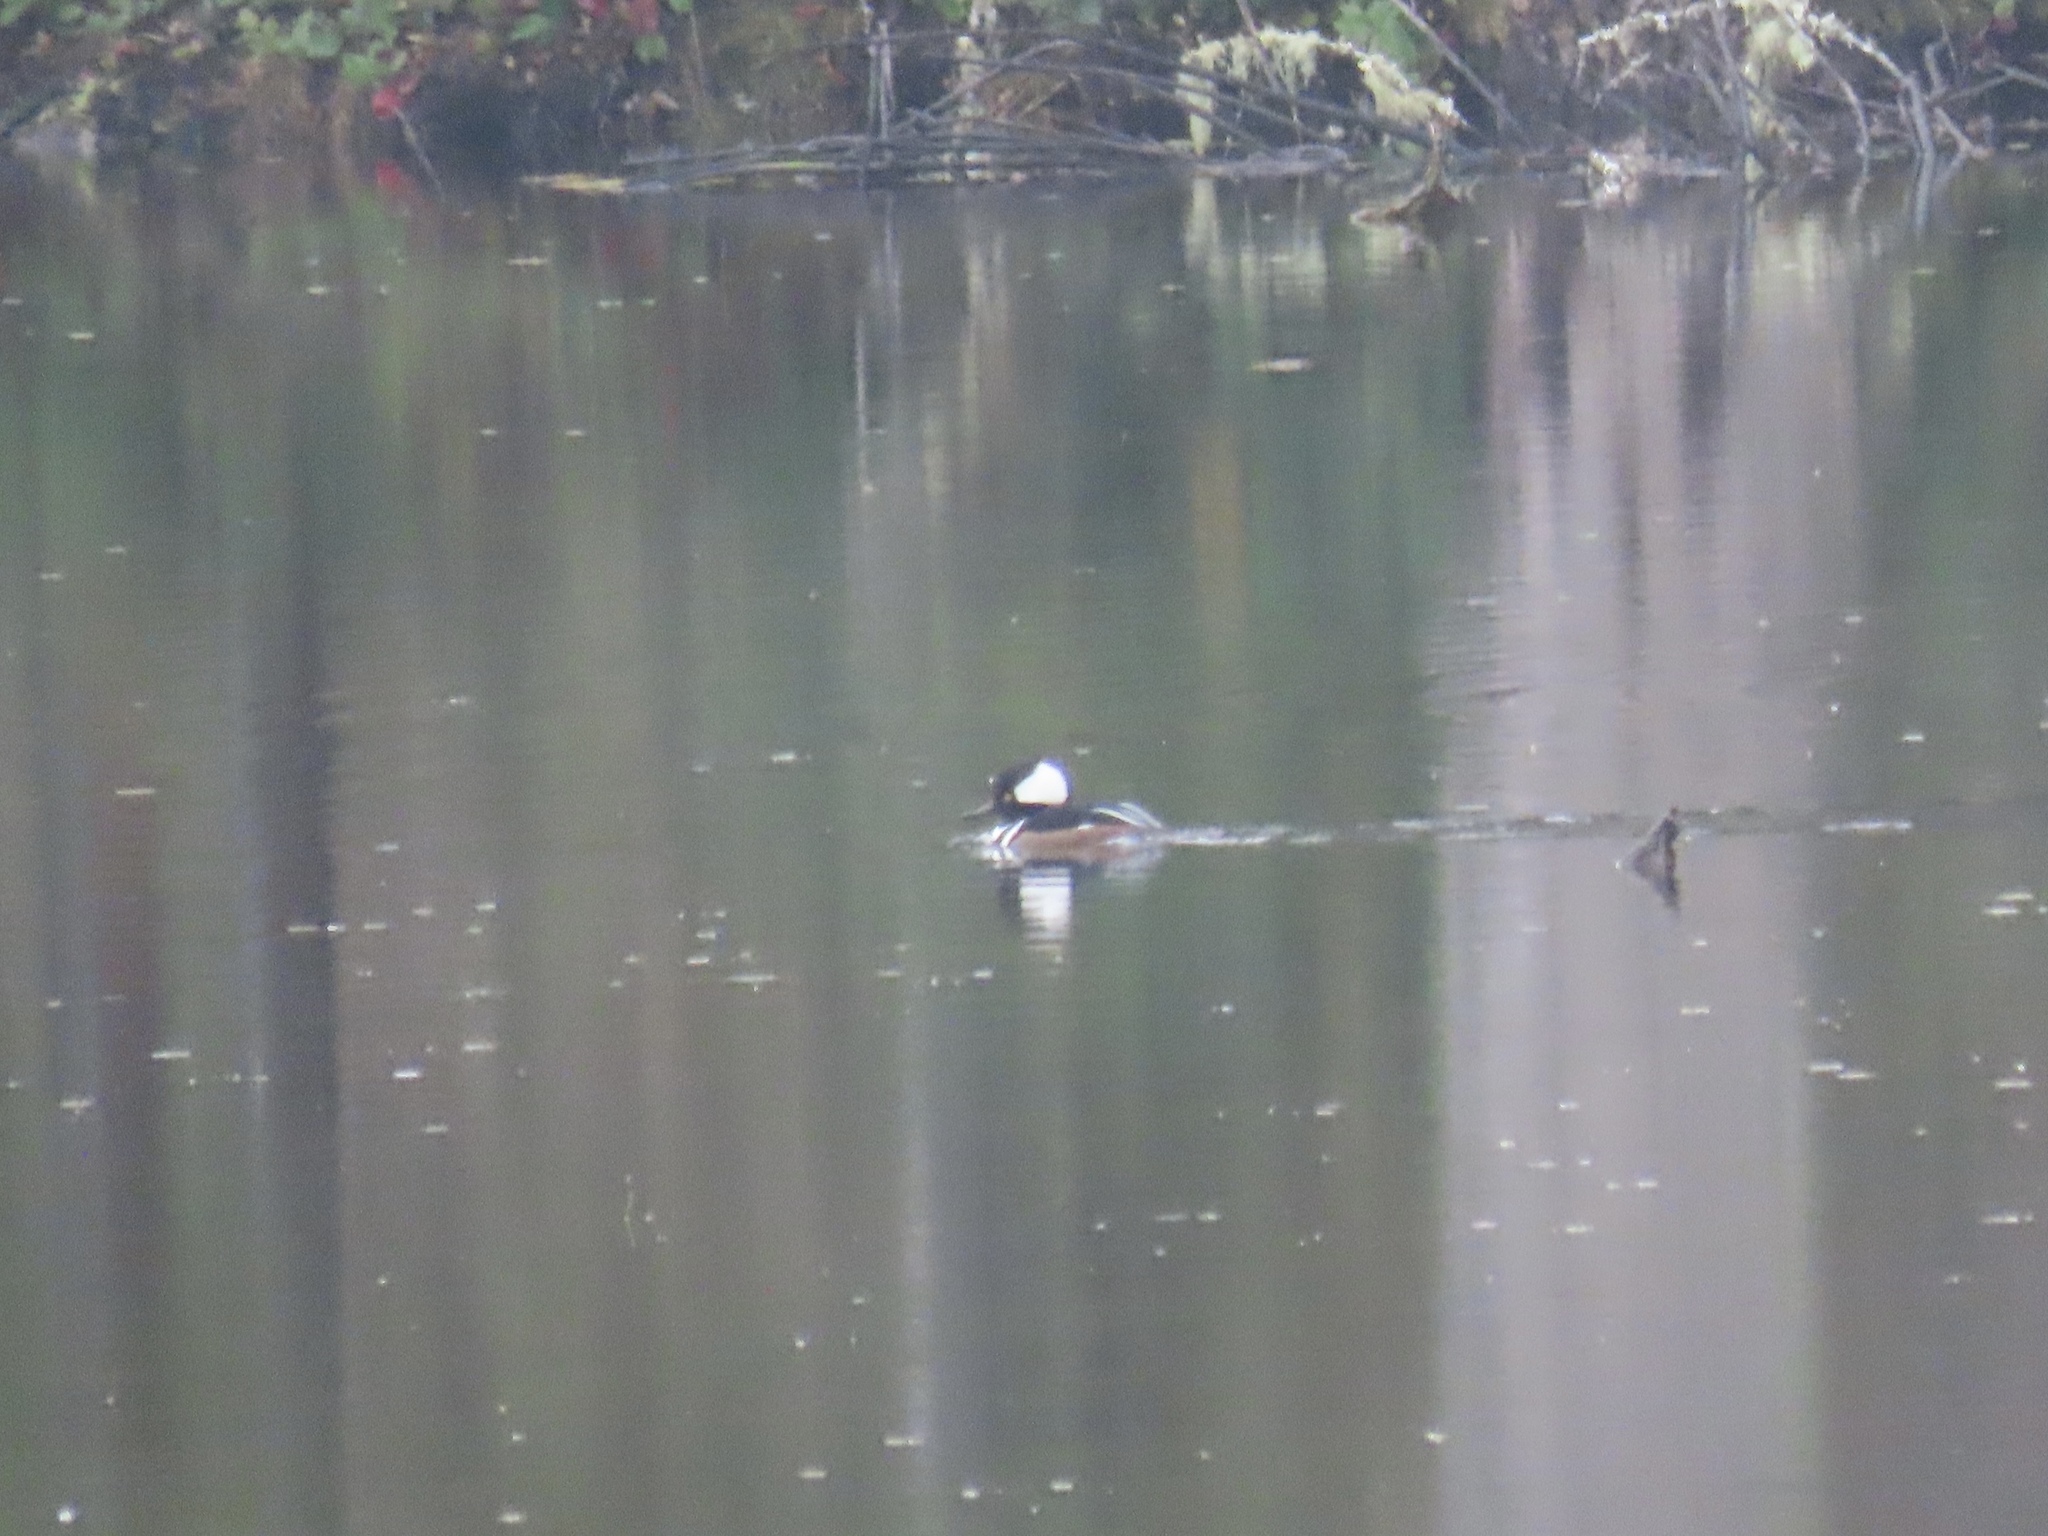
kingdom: Animalia
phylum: Chordata
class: Aves
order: Anseriformes
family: Anatidae
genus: Lophodytes
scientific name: Lophodytes cucullatus
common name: Hooded merganser
